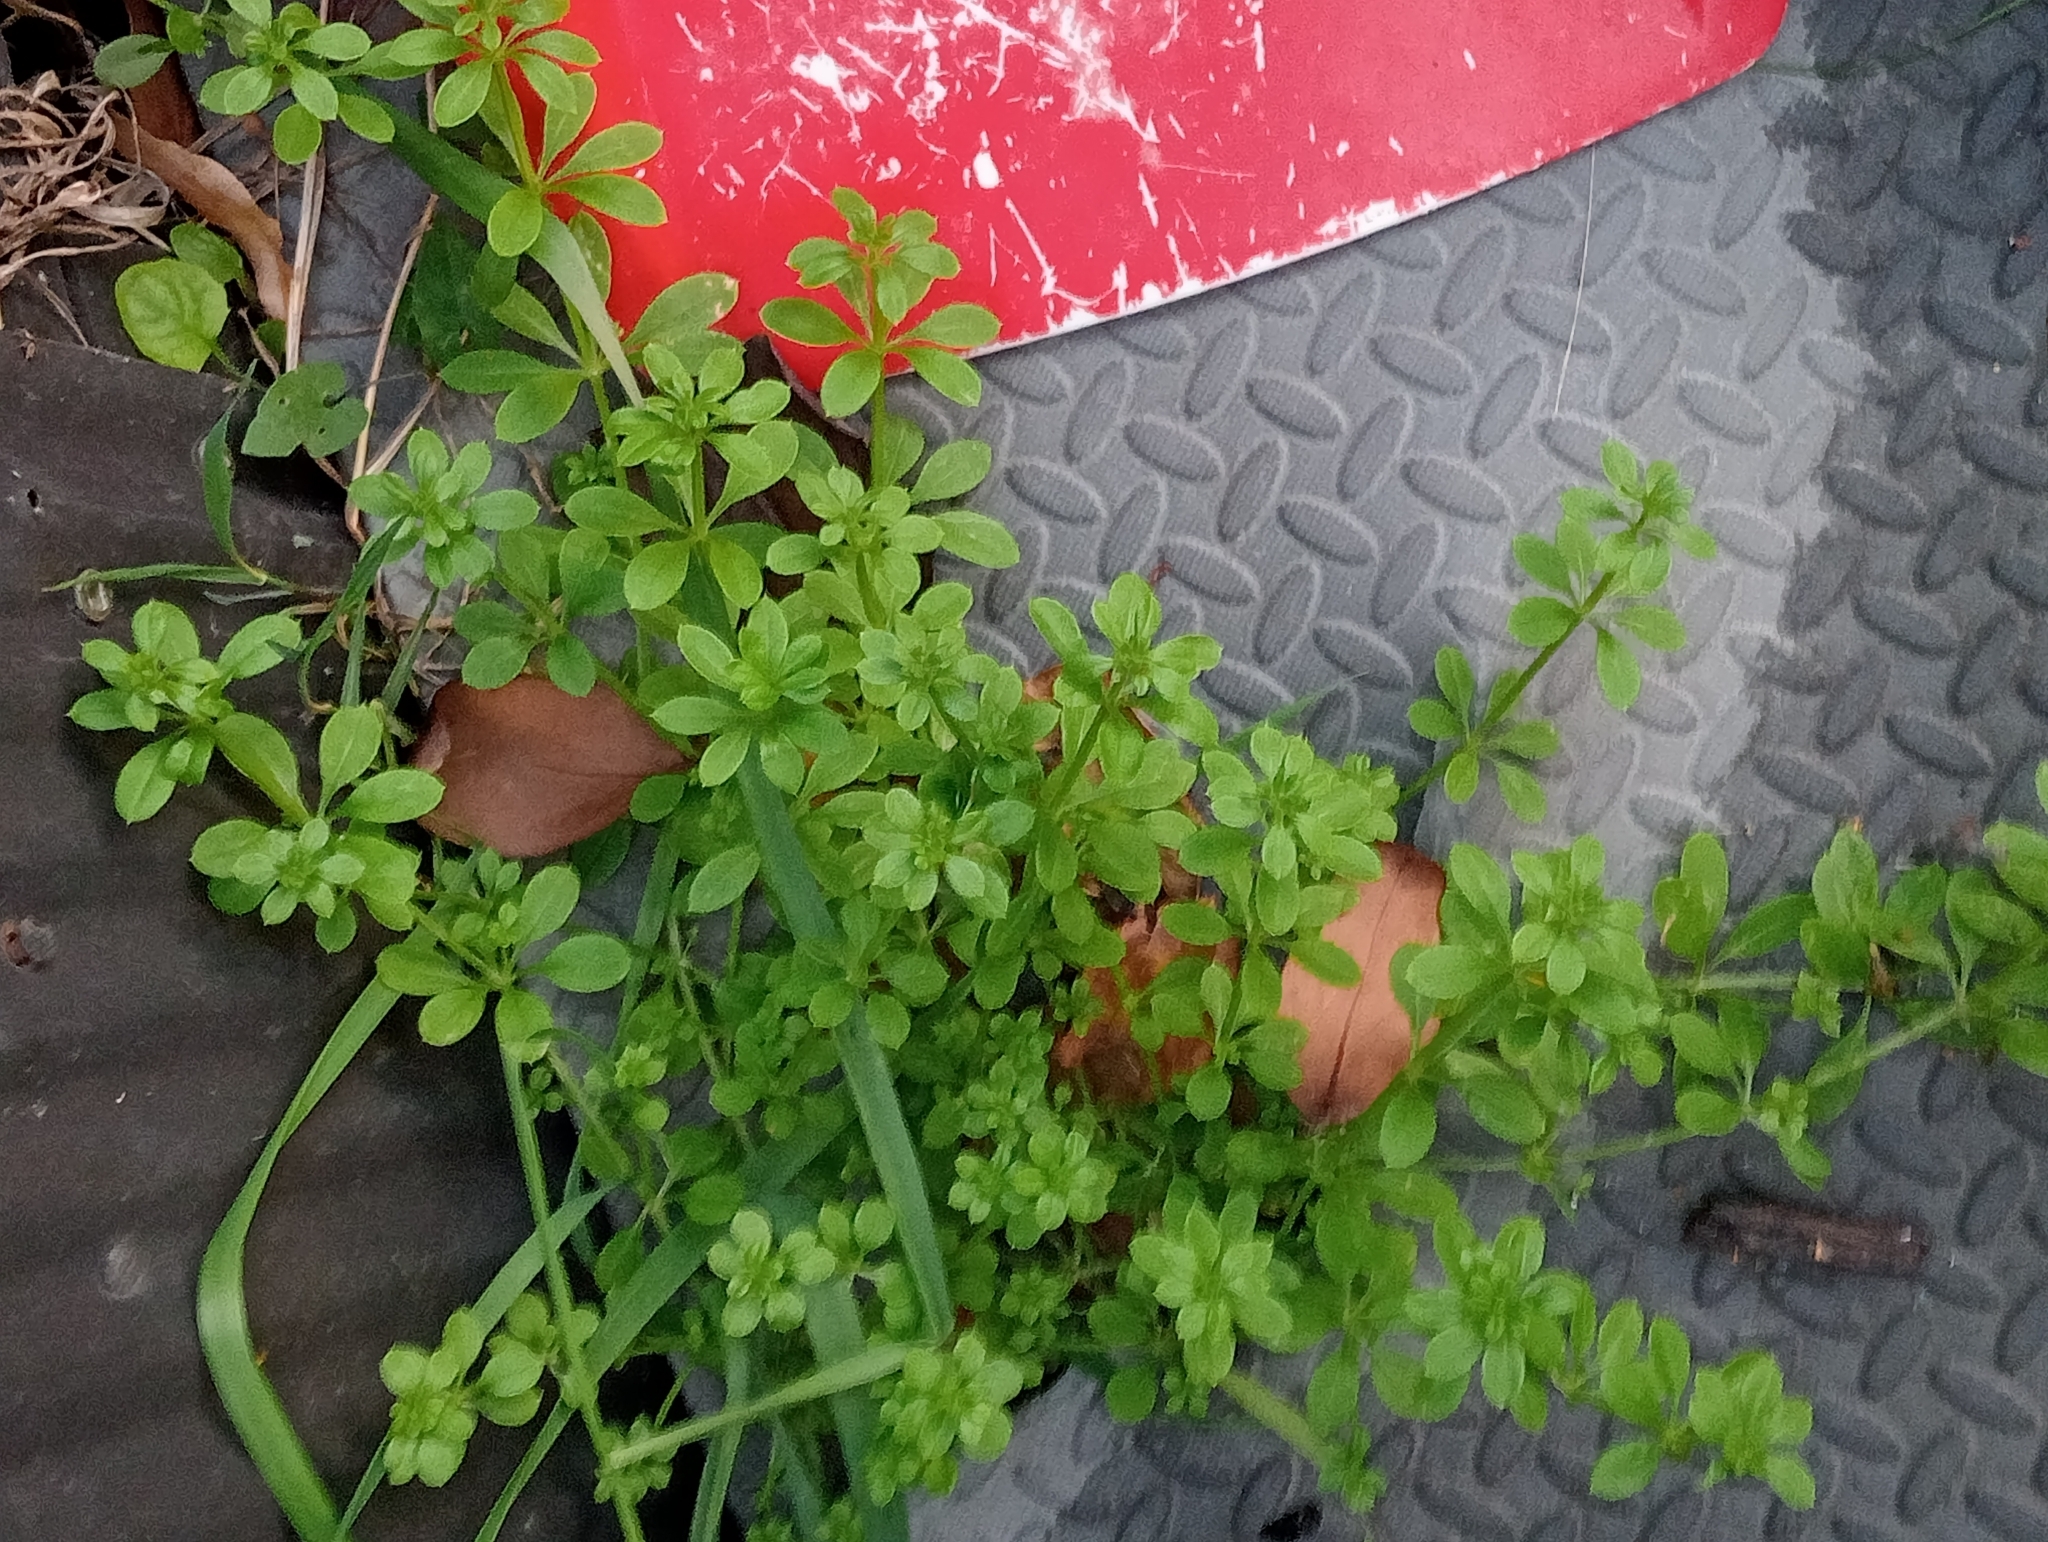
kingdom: Plantae
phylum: Tracheophyta
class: Magnoliopsida
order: Gentianales
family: Rubiaceae
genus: Galium
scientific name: Galium aparine
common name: Cleavers
